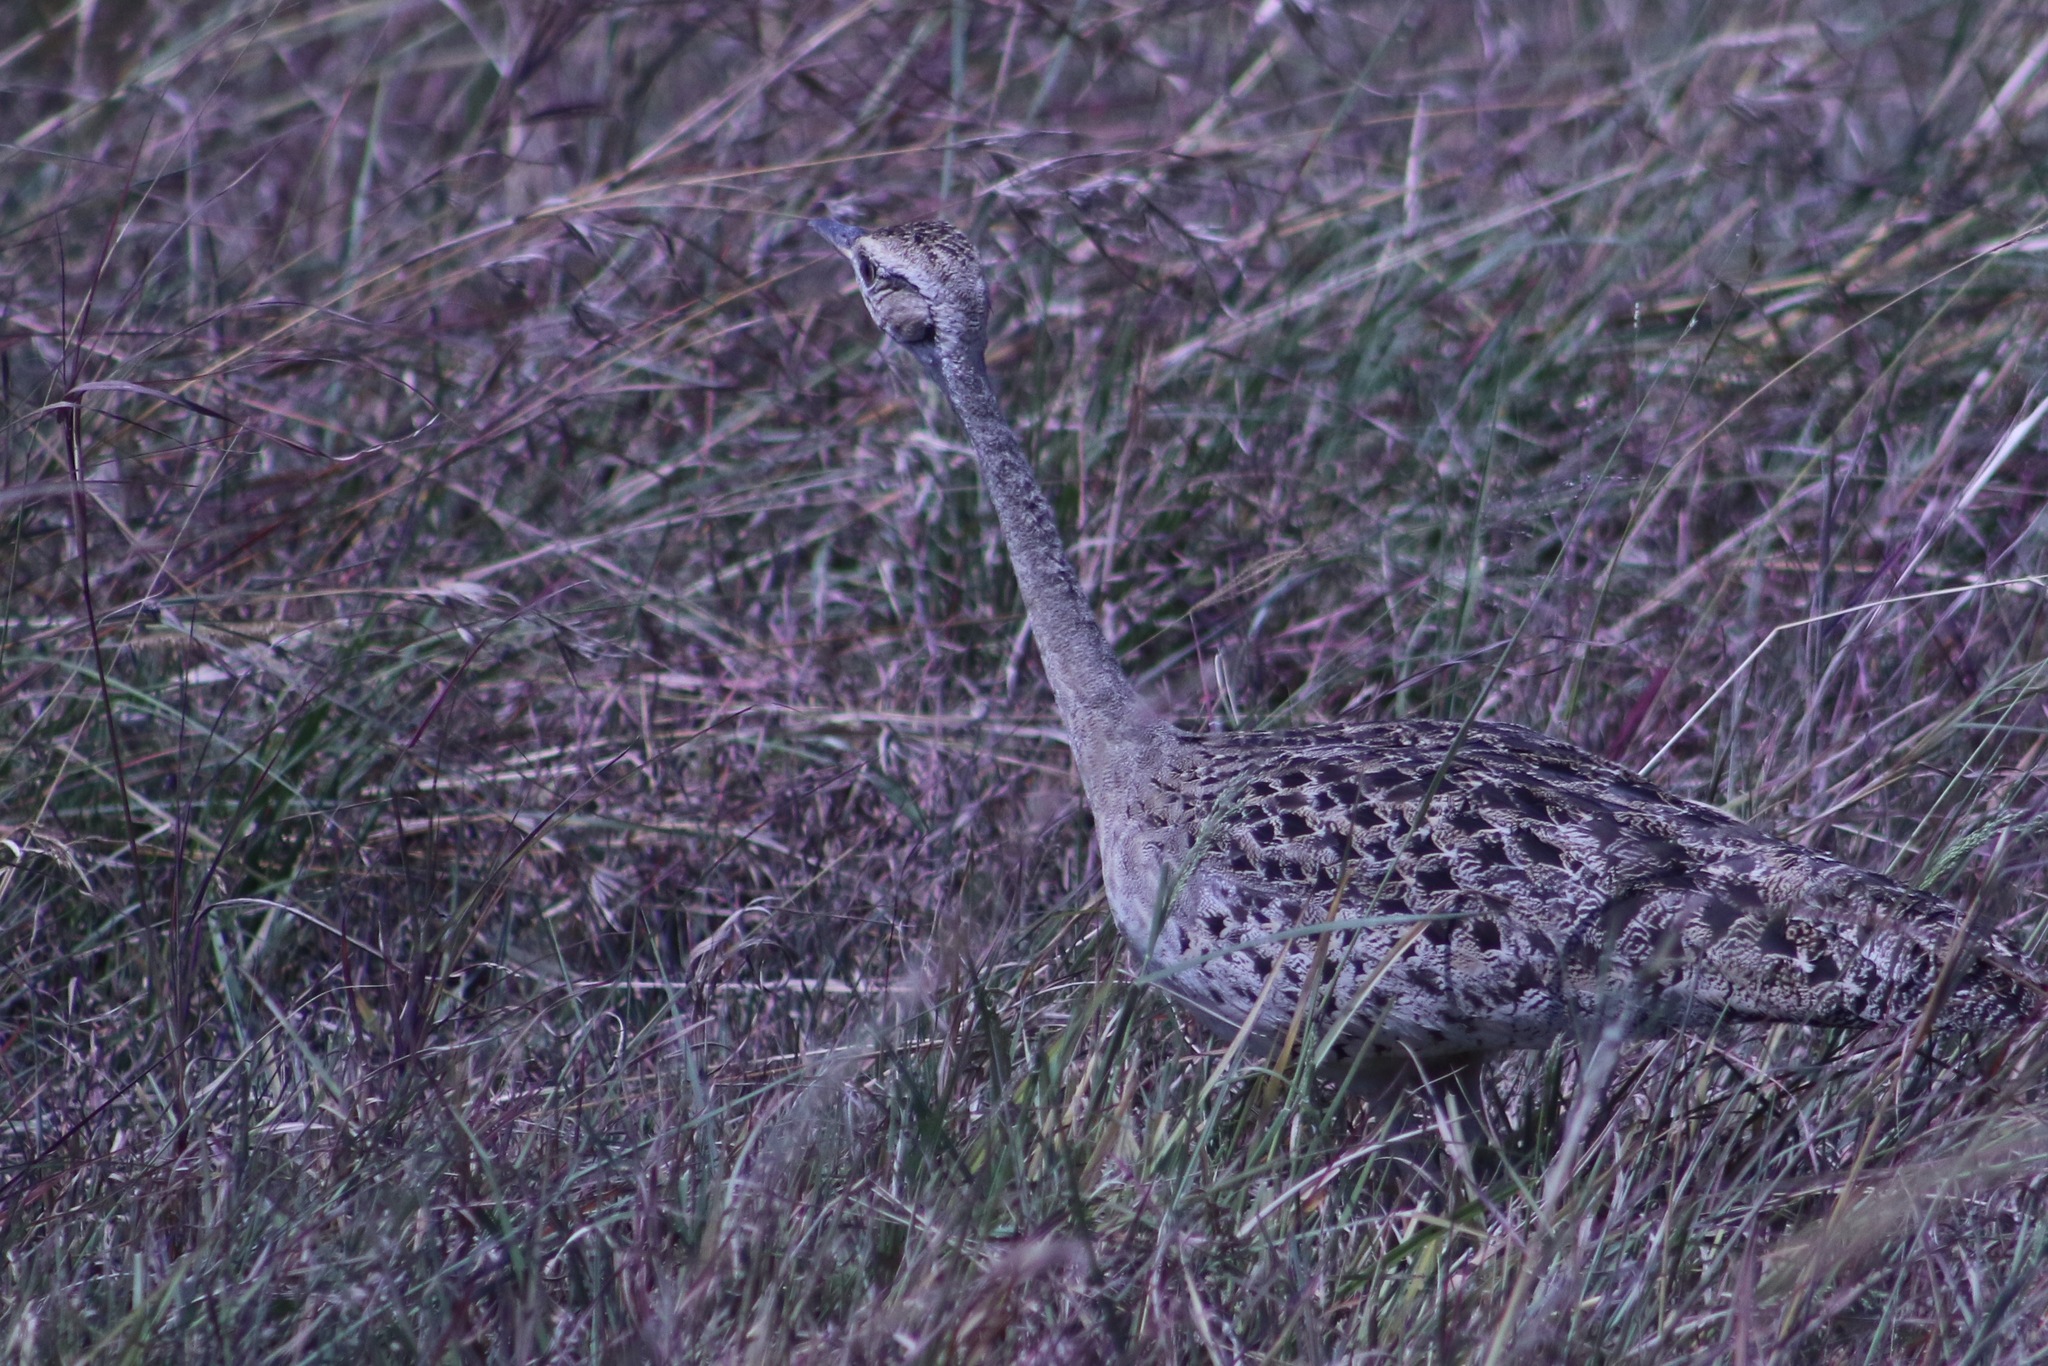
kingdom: Animalia
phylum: Chordata
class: Aves
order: Otidiformes
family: Otididae
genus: Lissotis
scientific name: Lissotis melanogaster
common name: Black-bellied bustard
